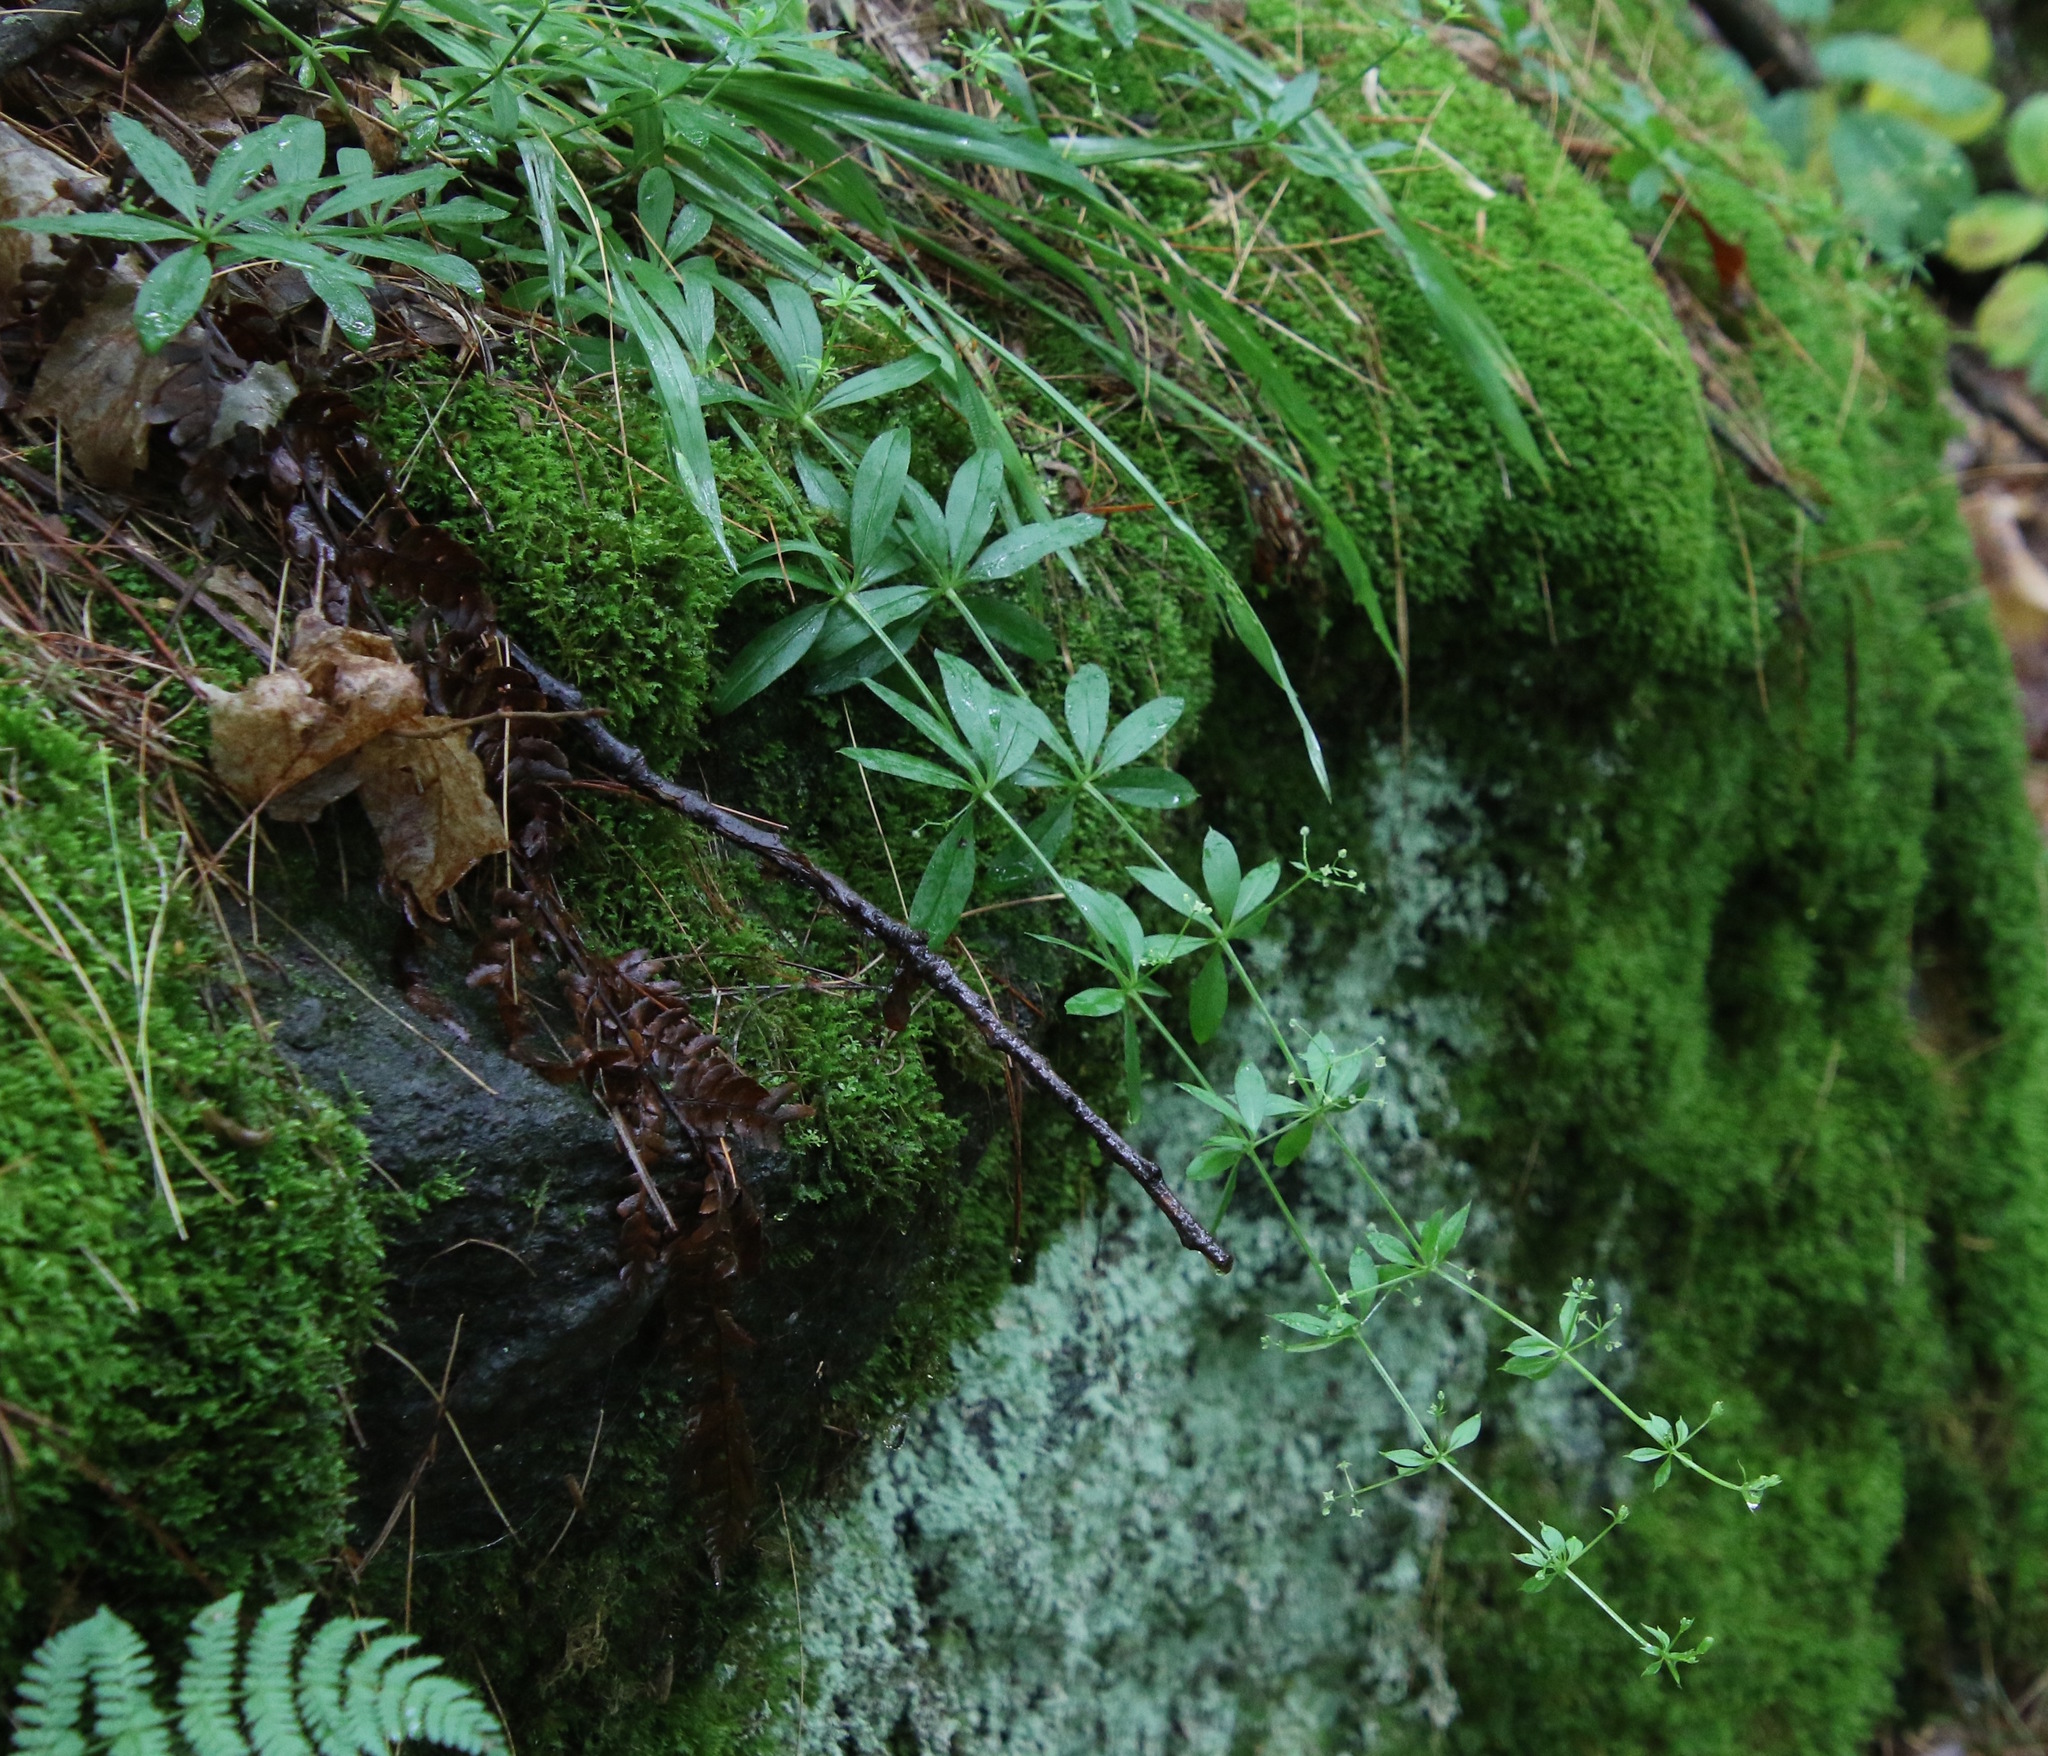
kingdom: Plantae
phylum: Tracheophyta
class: Magnoliopsida
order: Gentianales
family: Rubiaceae
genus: Galium
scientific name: Galium triflorum
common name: Fragrant bedstraw
